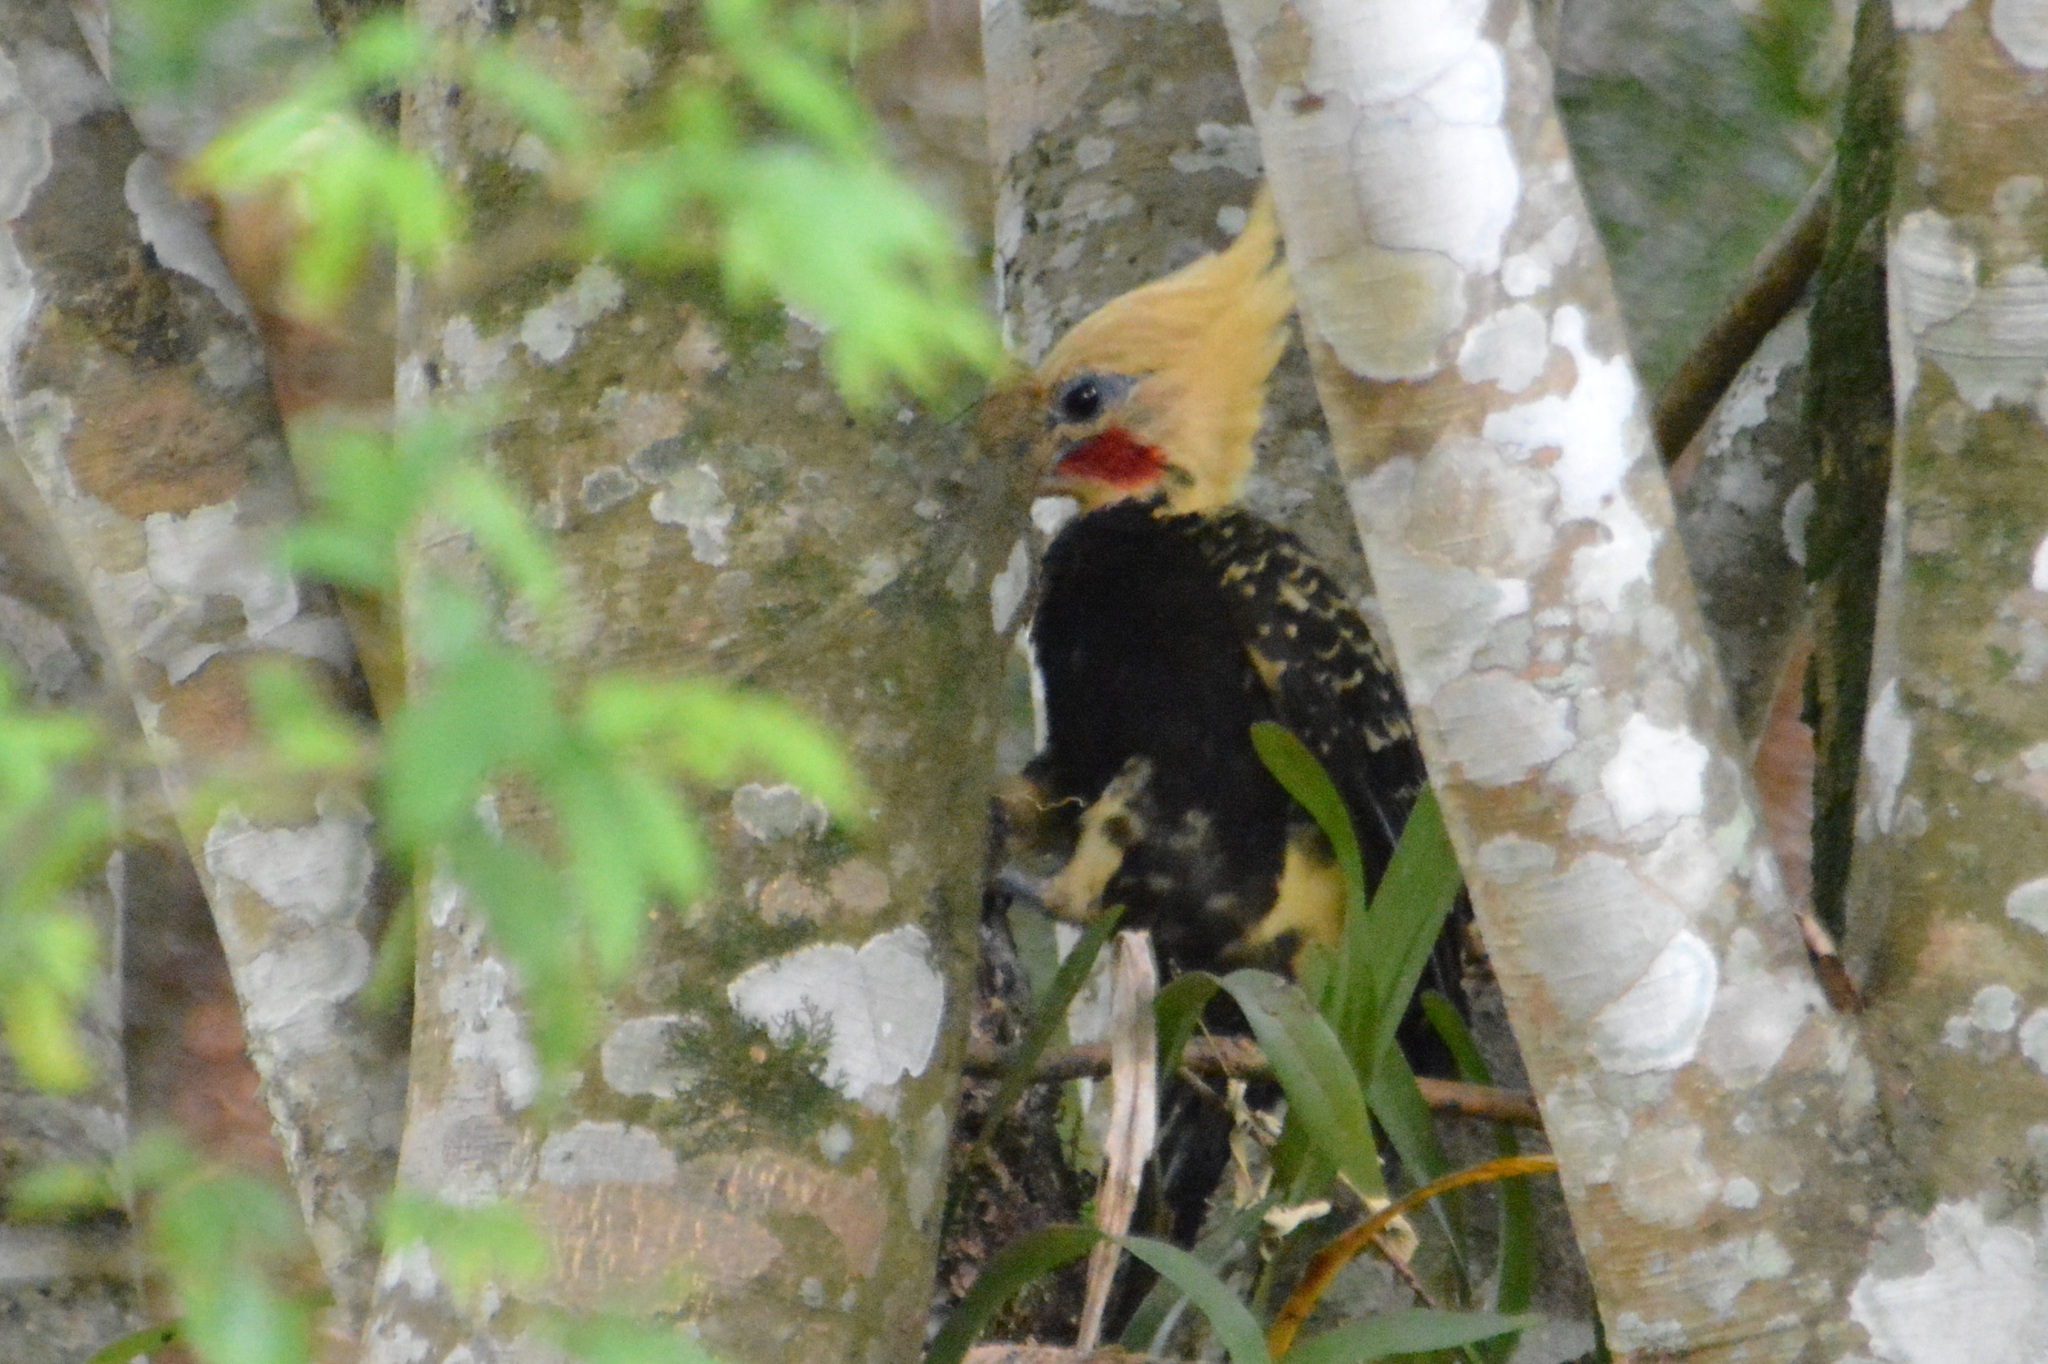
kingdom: Animalia
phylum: Chordata
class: Aves
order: Piciformes
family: Picidae
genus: Celeus
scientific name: Celeus flavescens
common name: Blond-crested woodpecker
